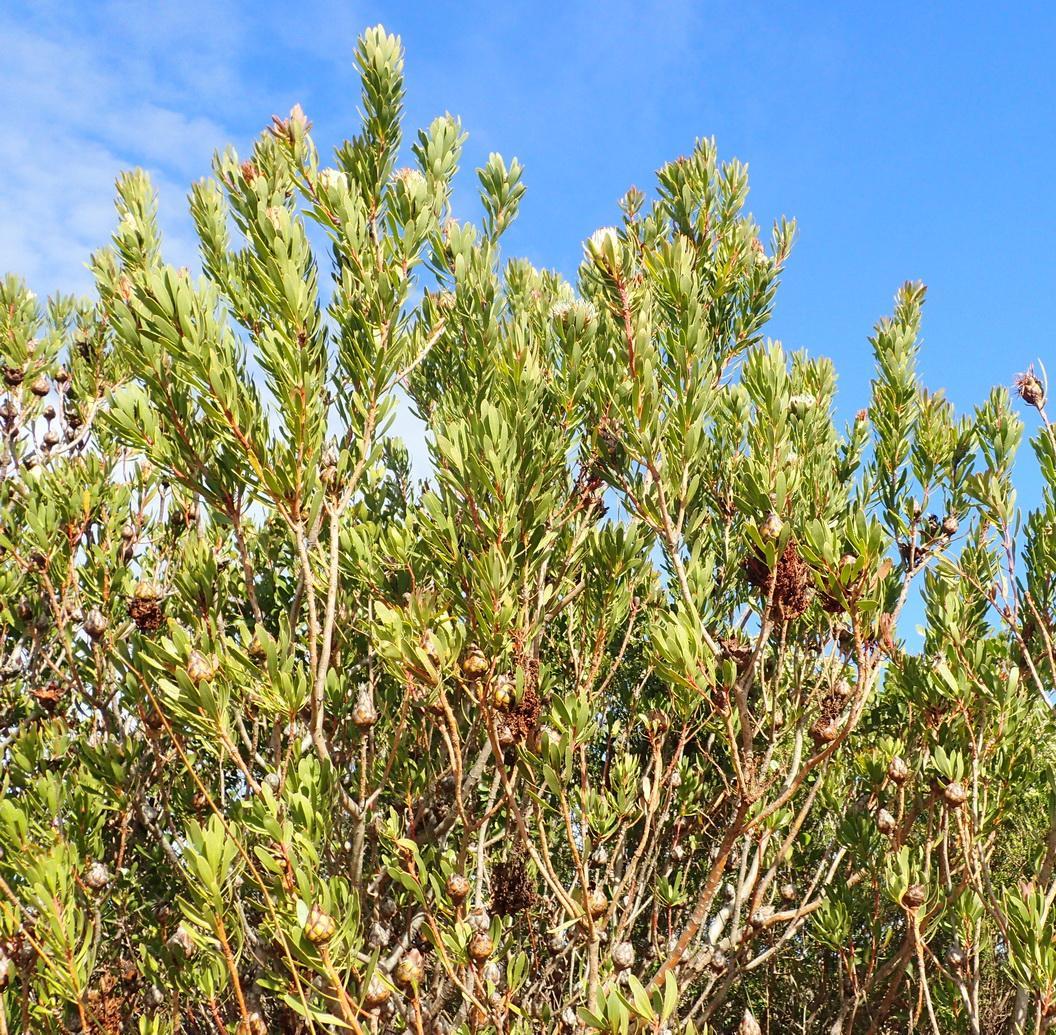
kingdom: Plantae
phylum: Tracheophyta
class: Magnoliopsida
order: Proteales
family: Proteaceae
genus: Protea
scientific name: Protea lanceolata
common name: Lance-leaved protea
